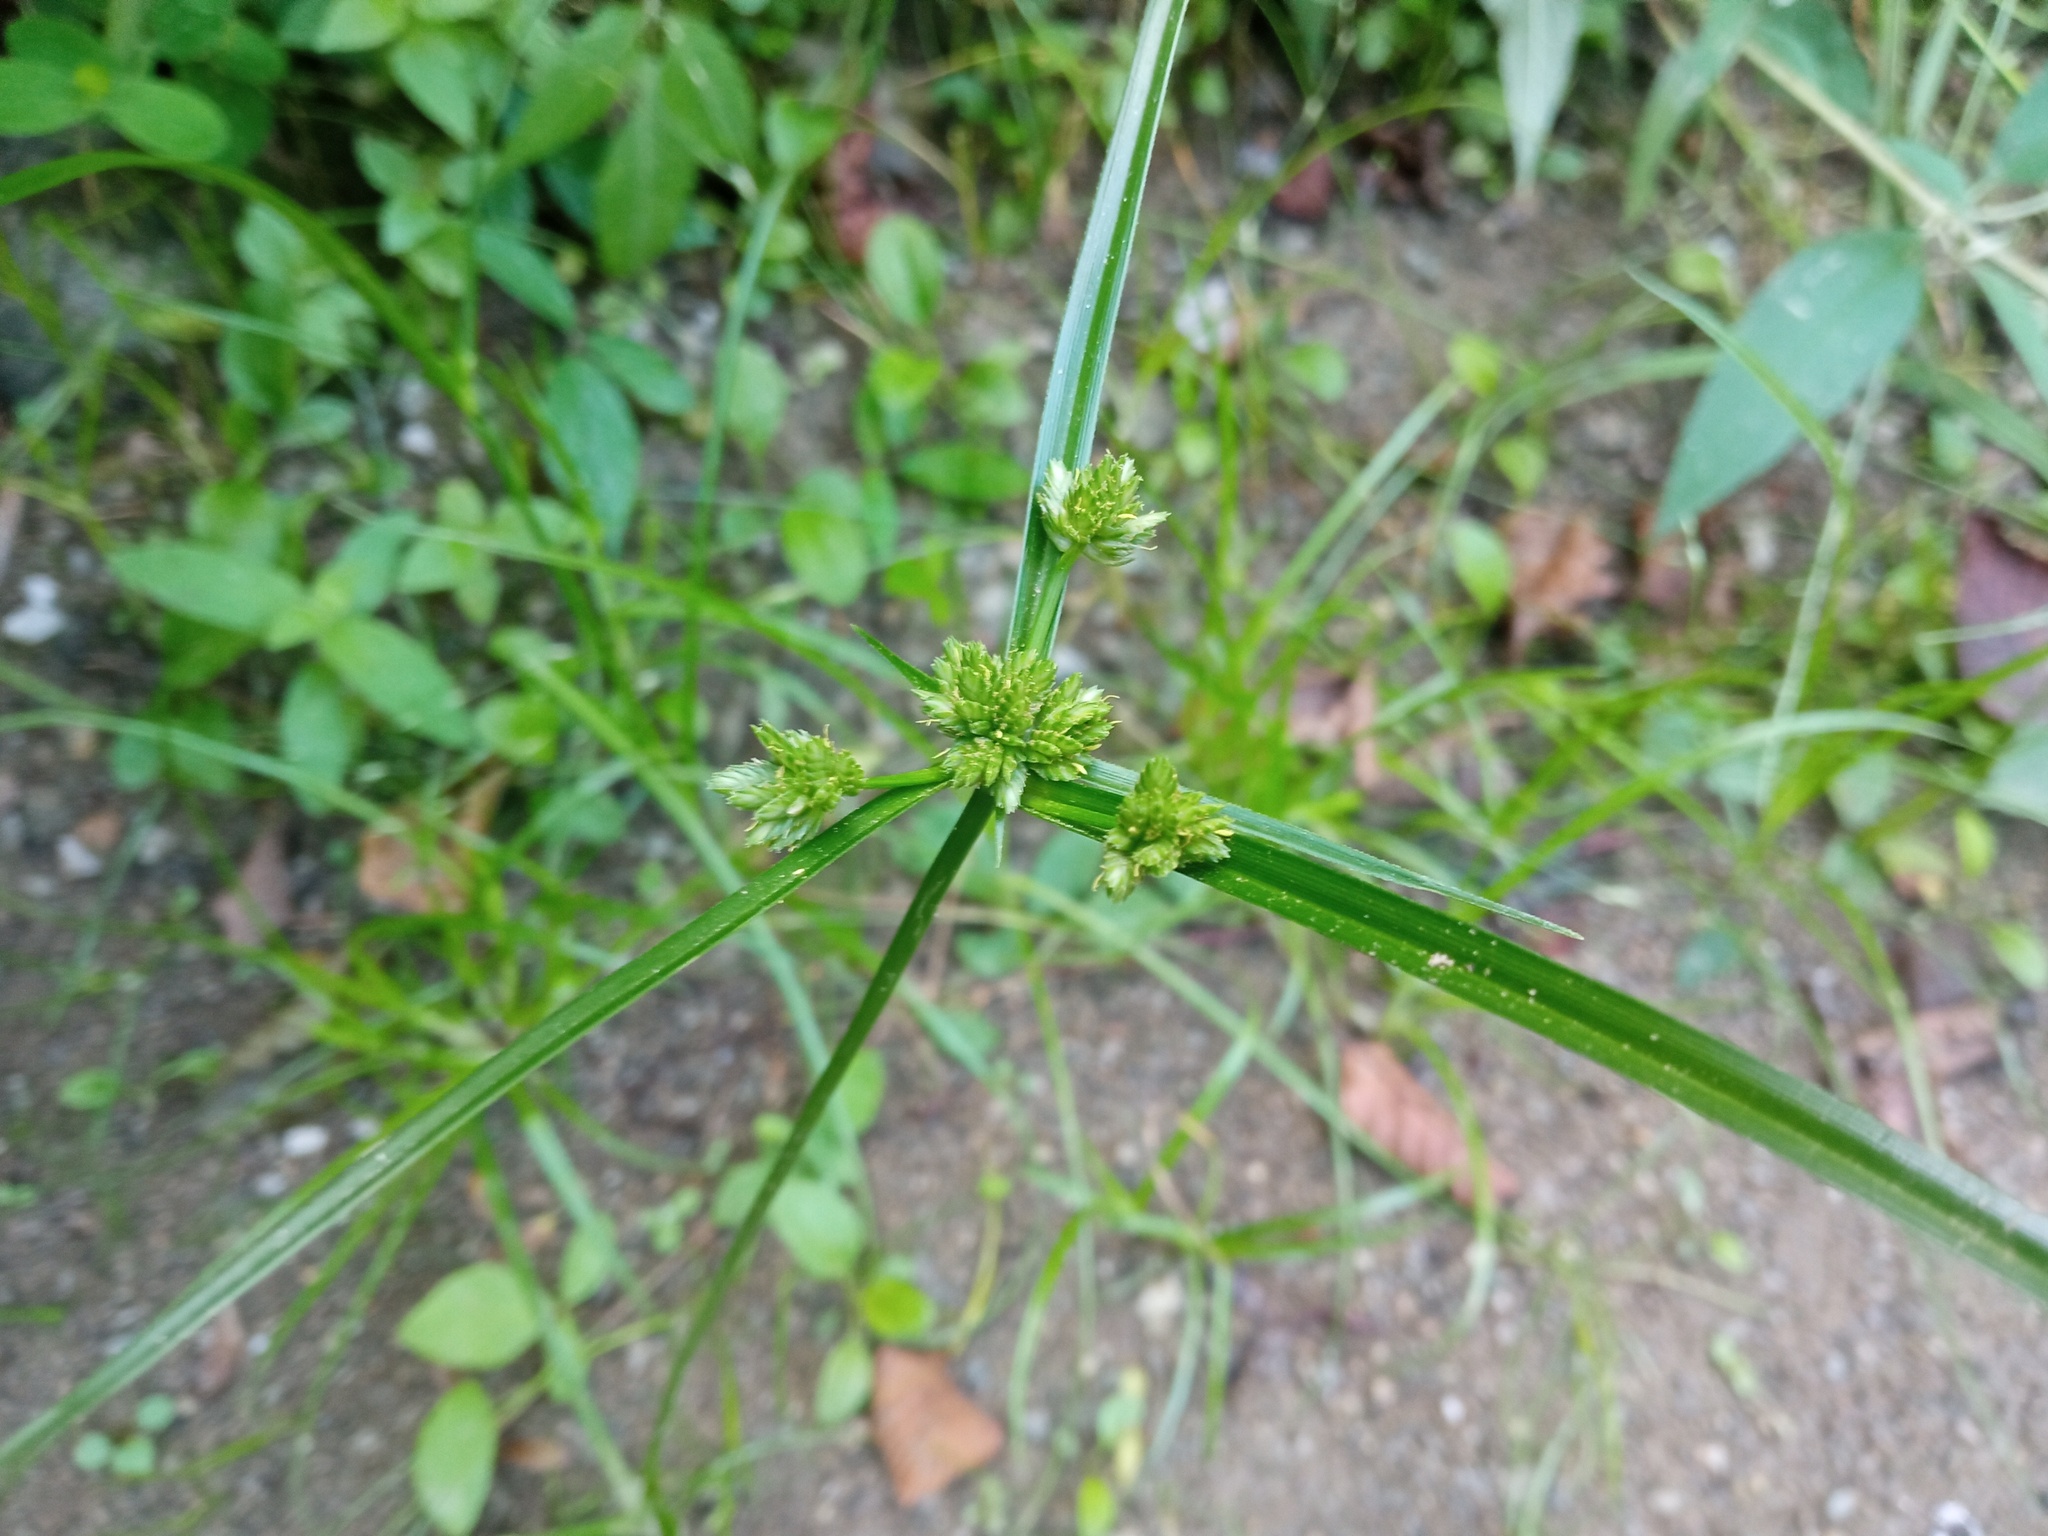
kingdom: Plantae
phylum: Tracheophyta
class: Liliopsida
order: Poales
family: Cyperaceae
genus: Cyperus
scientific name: Cyperus eragrostis
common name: Tall flatsedge
